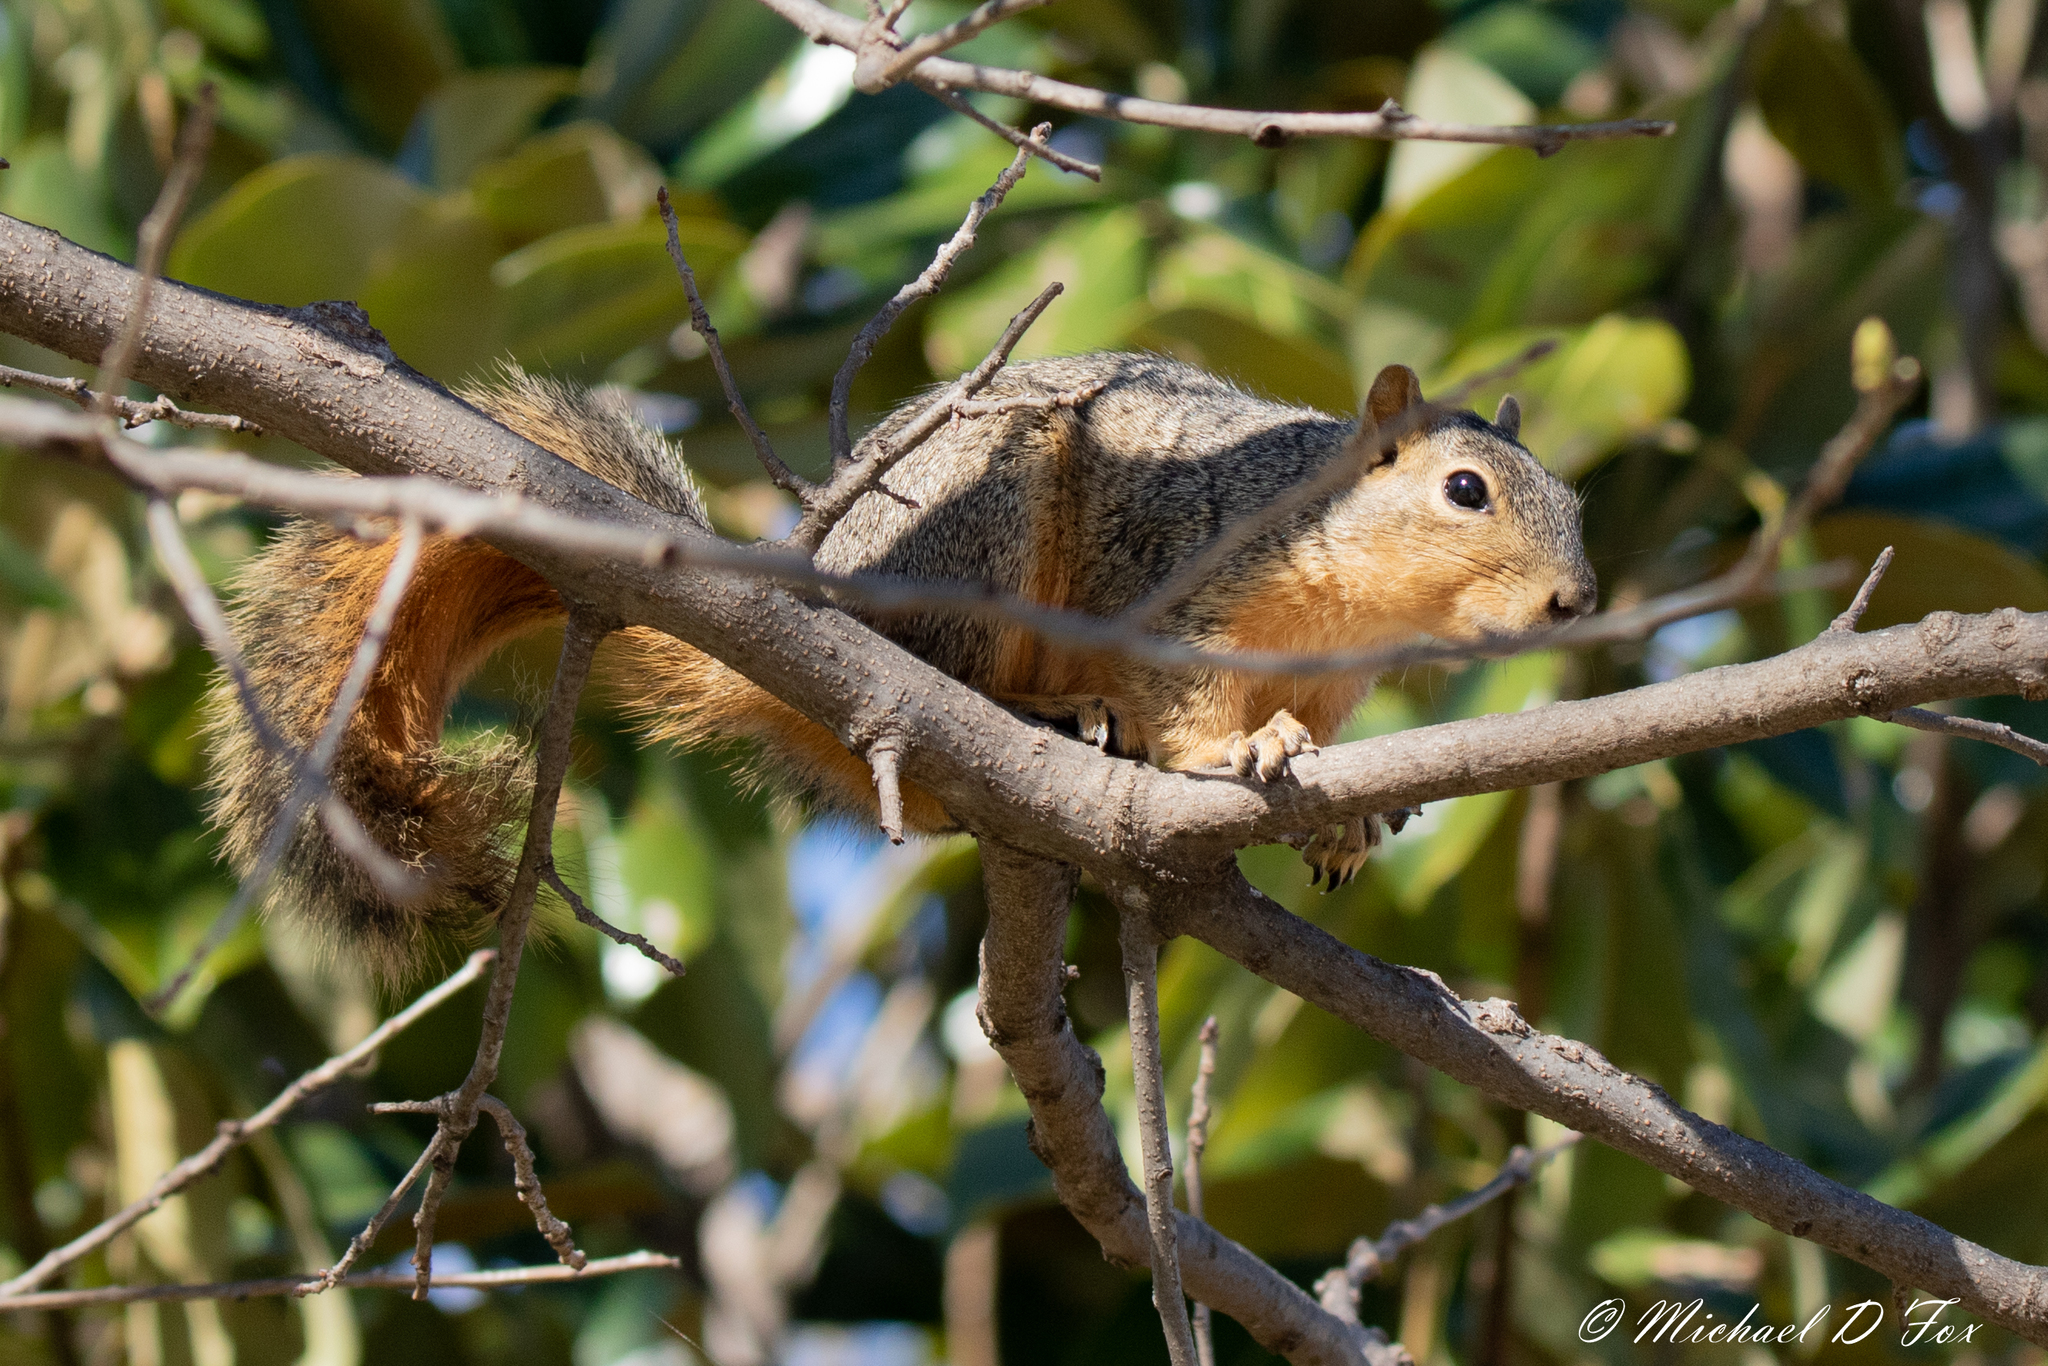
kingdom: Animalia
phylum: Chordata
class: Mammalia
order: Rodentia
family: Sciuridae
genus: Sciurus
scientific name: Sciurus niger
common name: Fox squirrel
